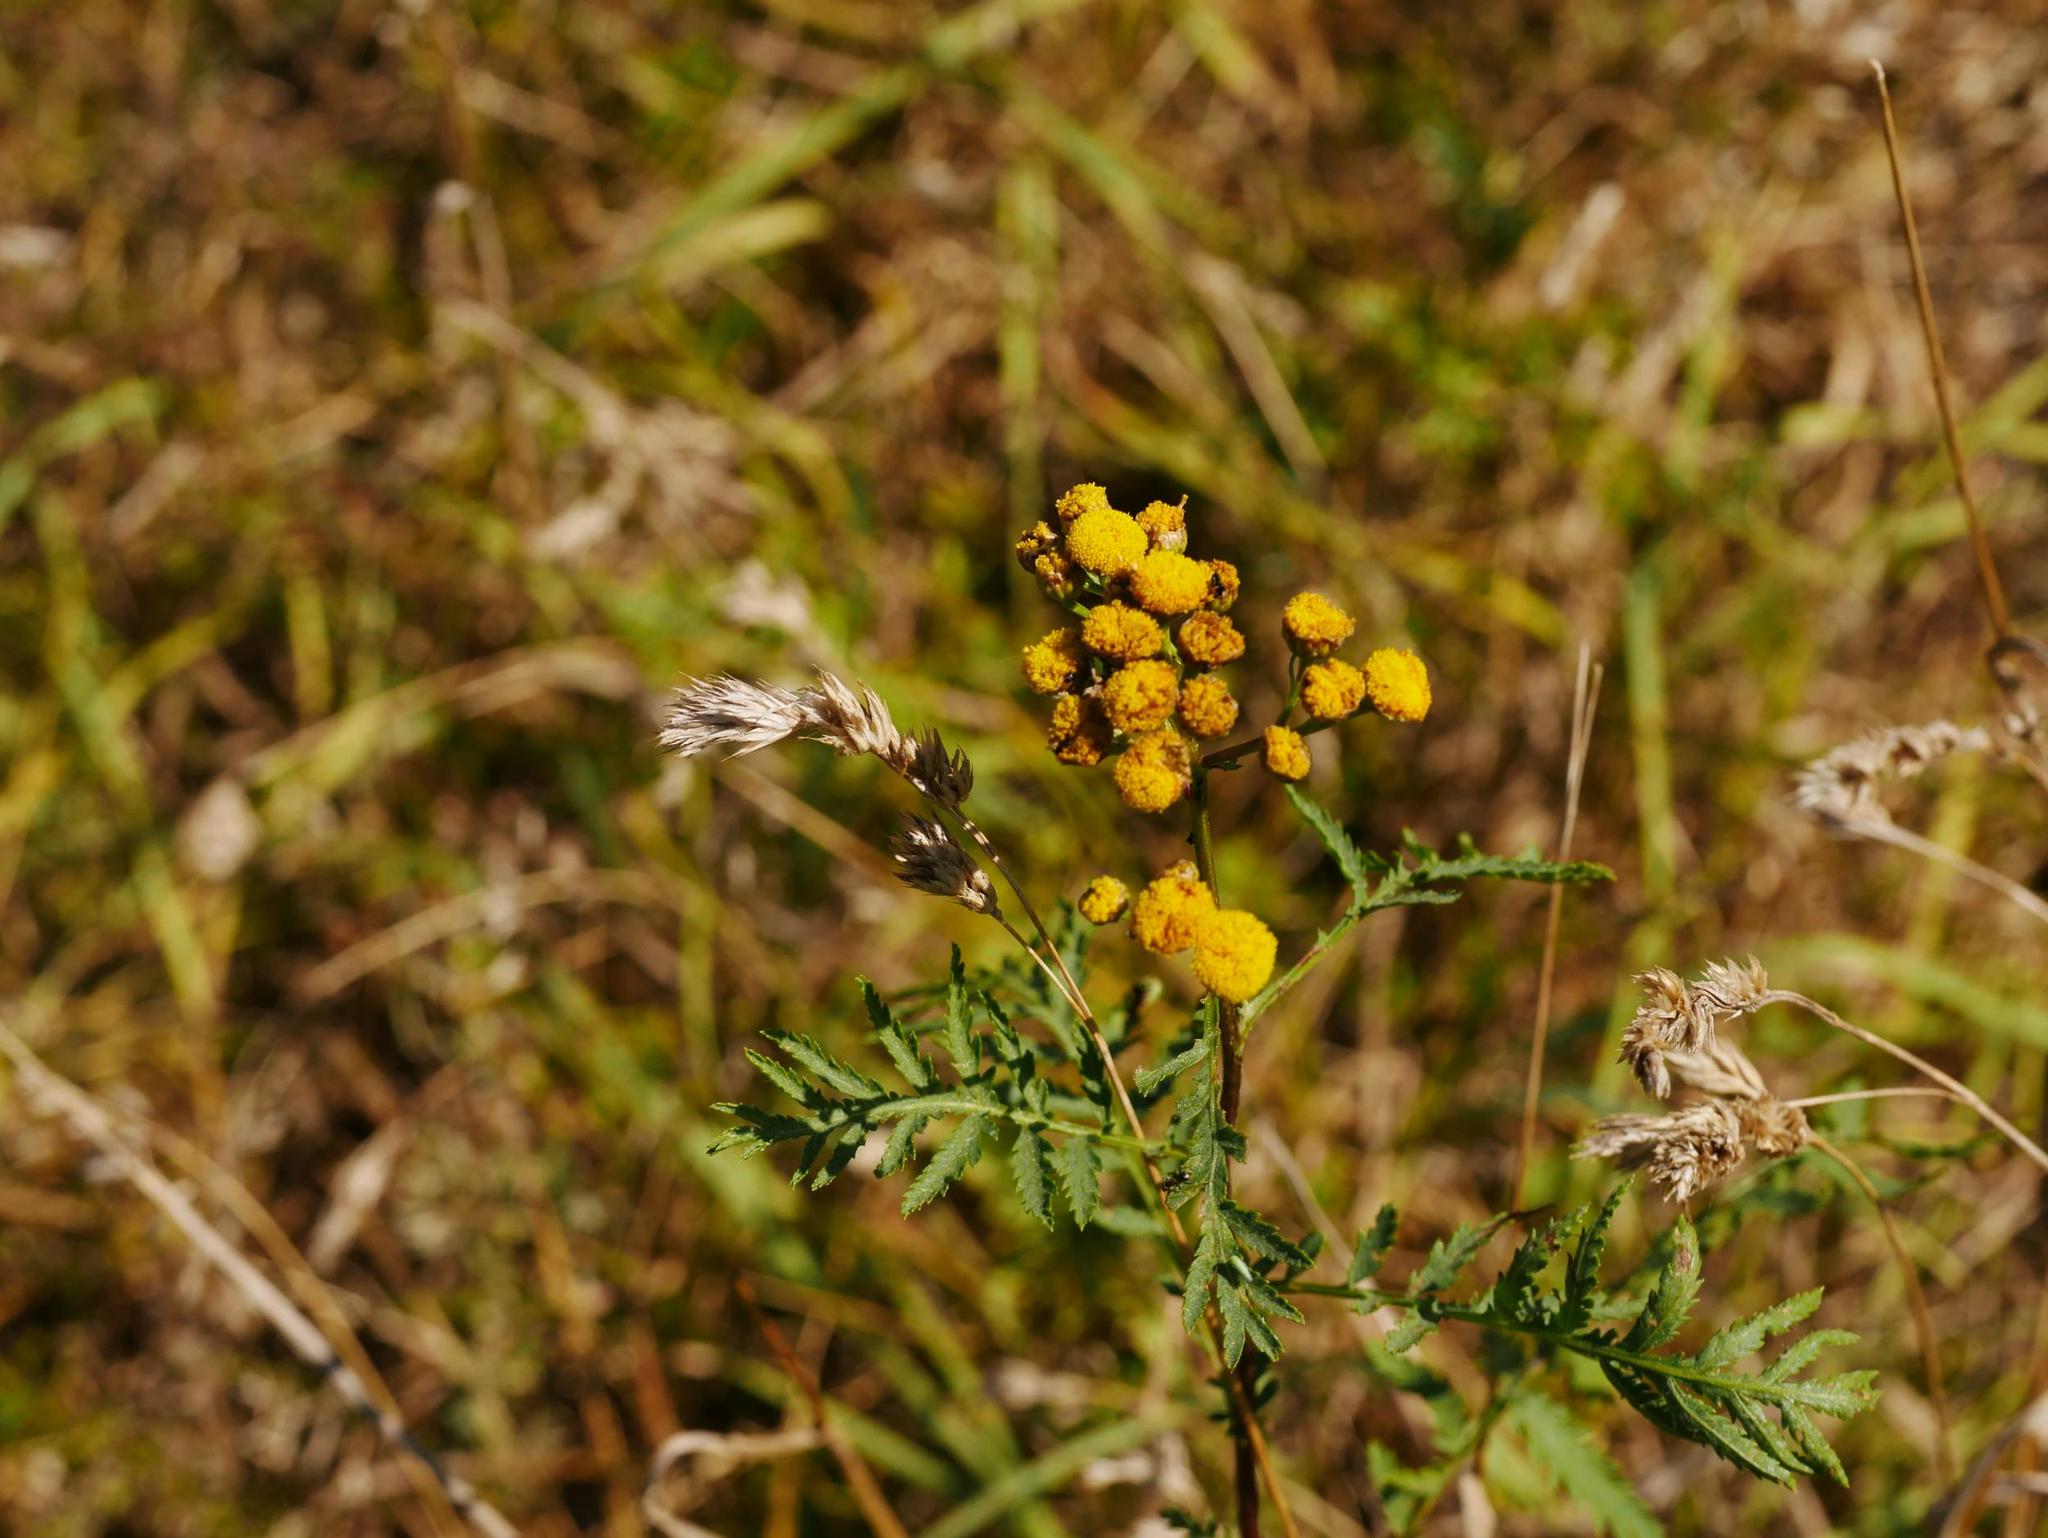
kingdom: Plantae
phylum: Tracheophyta
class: Magnoliopsida
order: Asterales
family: Asteraceae
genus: Tanacetum
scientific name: Tanacetum vulgare
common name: Common tansy
